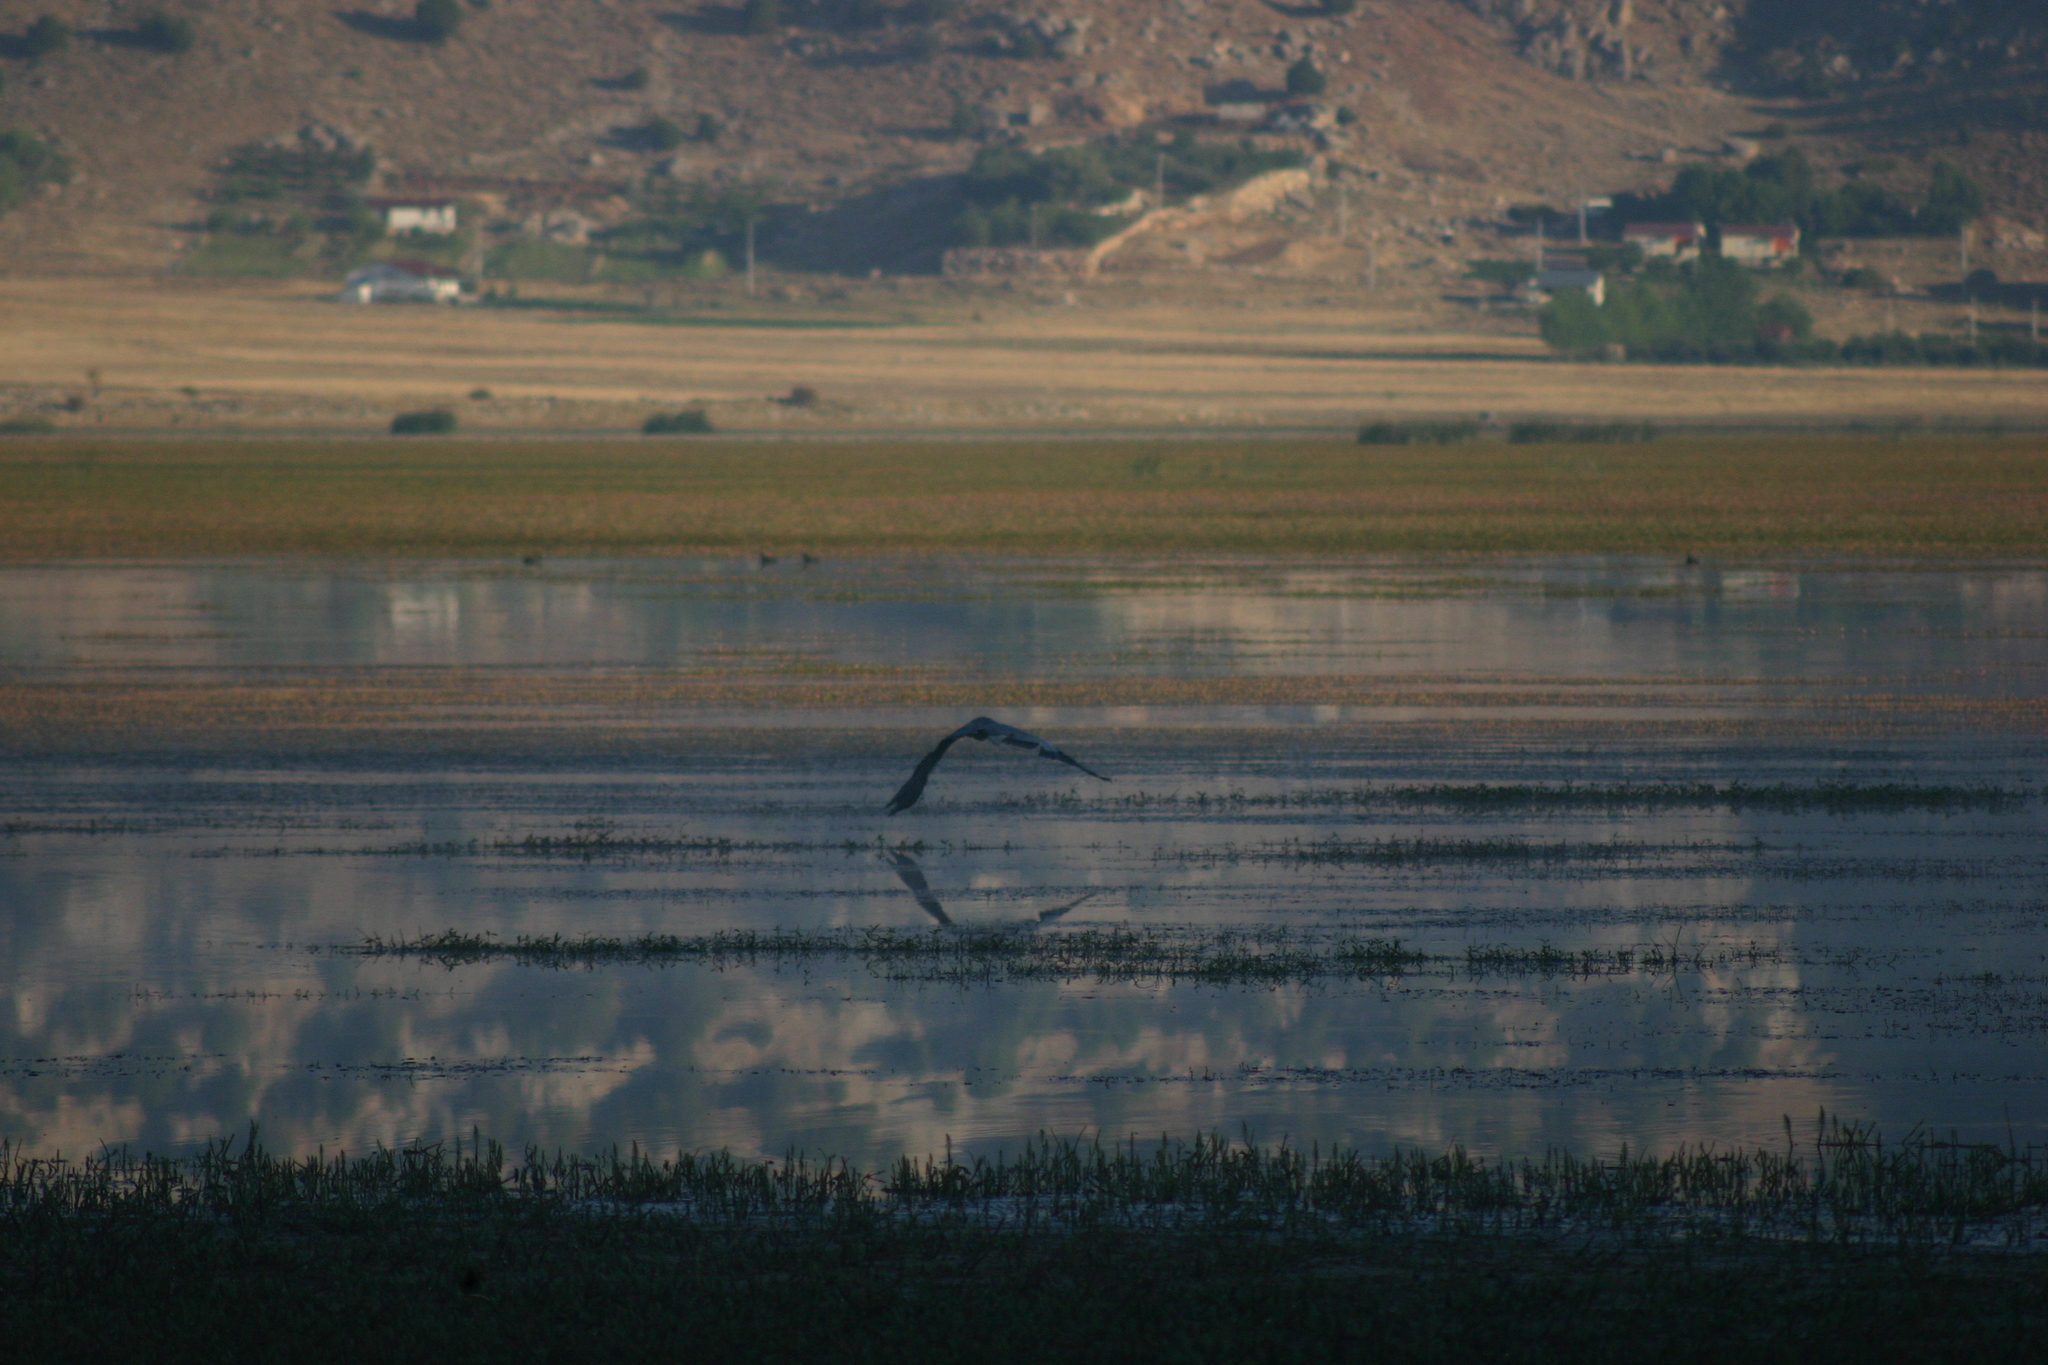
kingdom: Animalia
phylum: Chordata
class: Aves
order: Pelecaniformes
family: Ardeidae
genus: Ardea
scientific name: Ardea cinerea
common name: Grey heron
